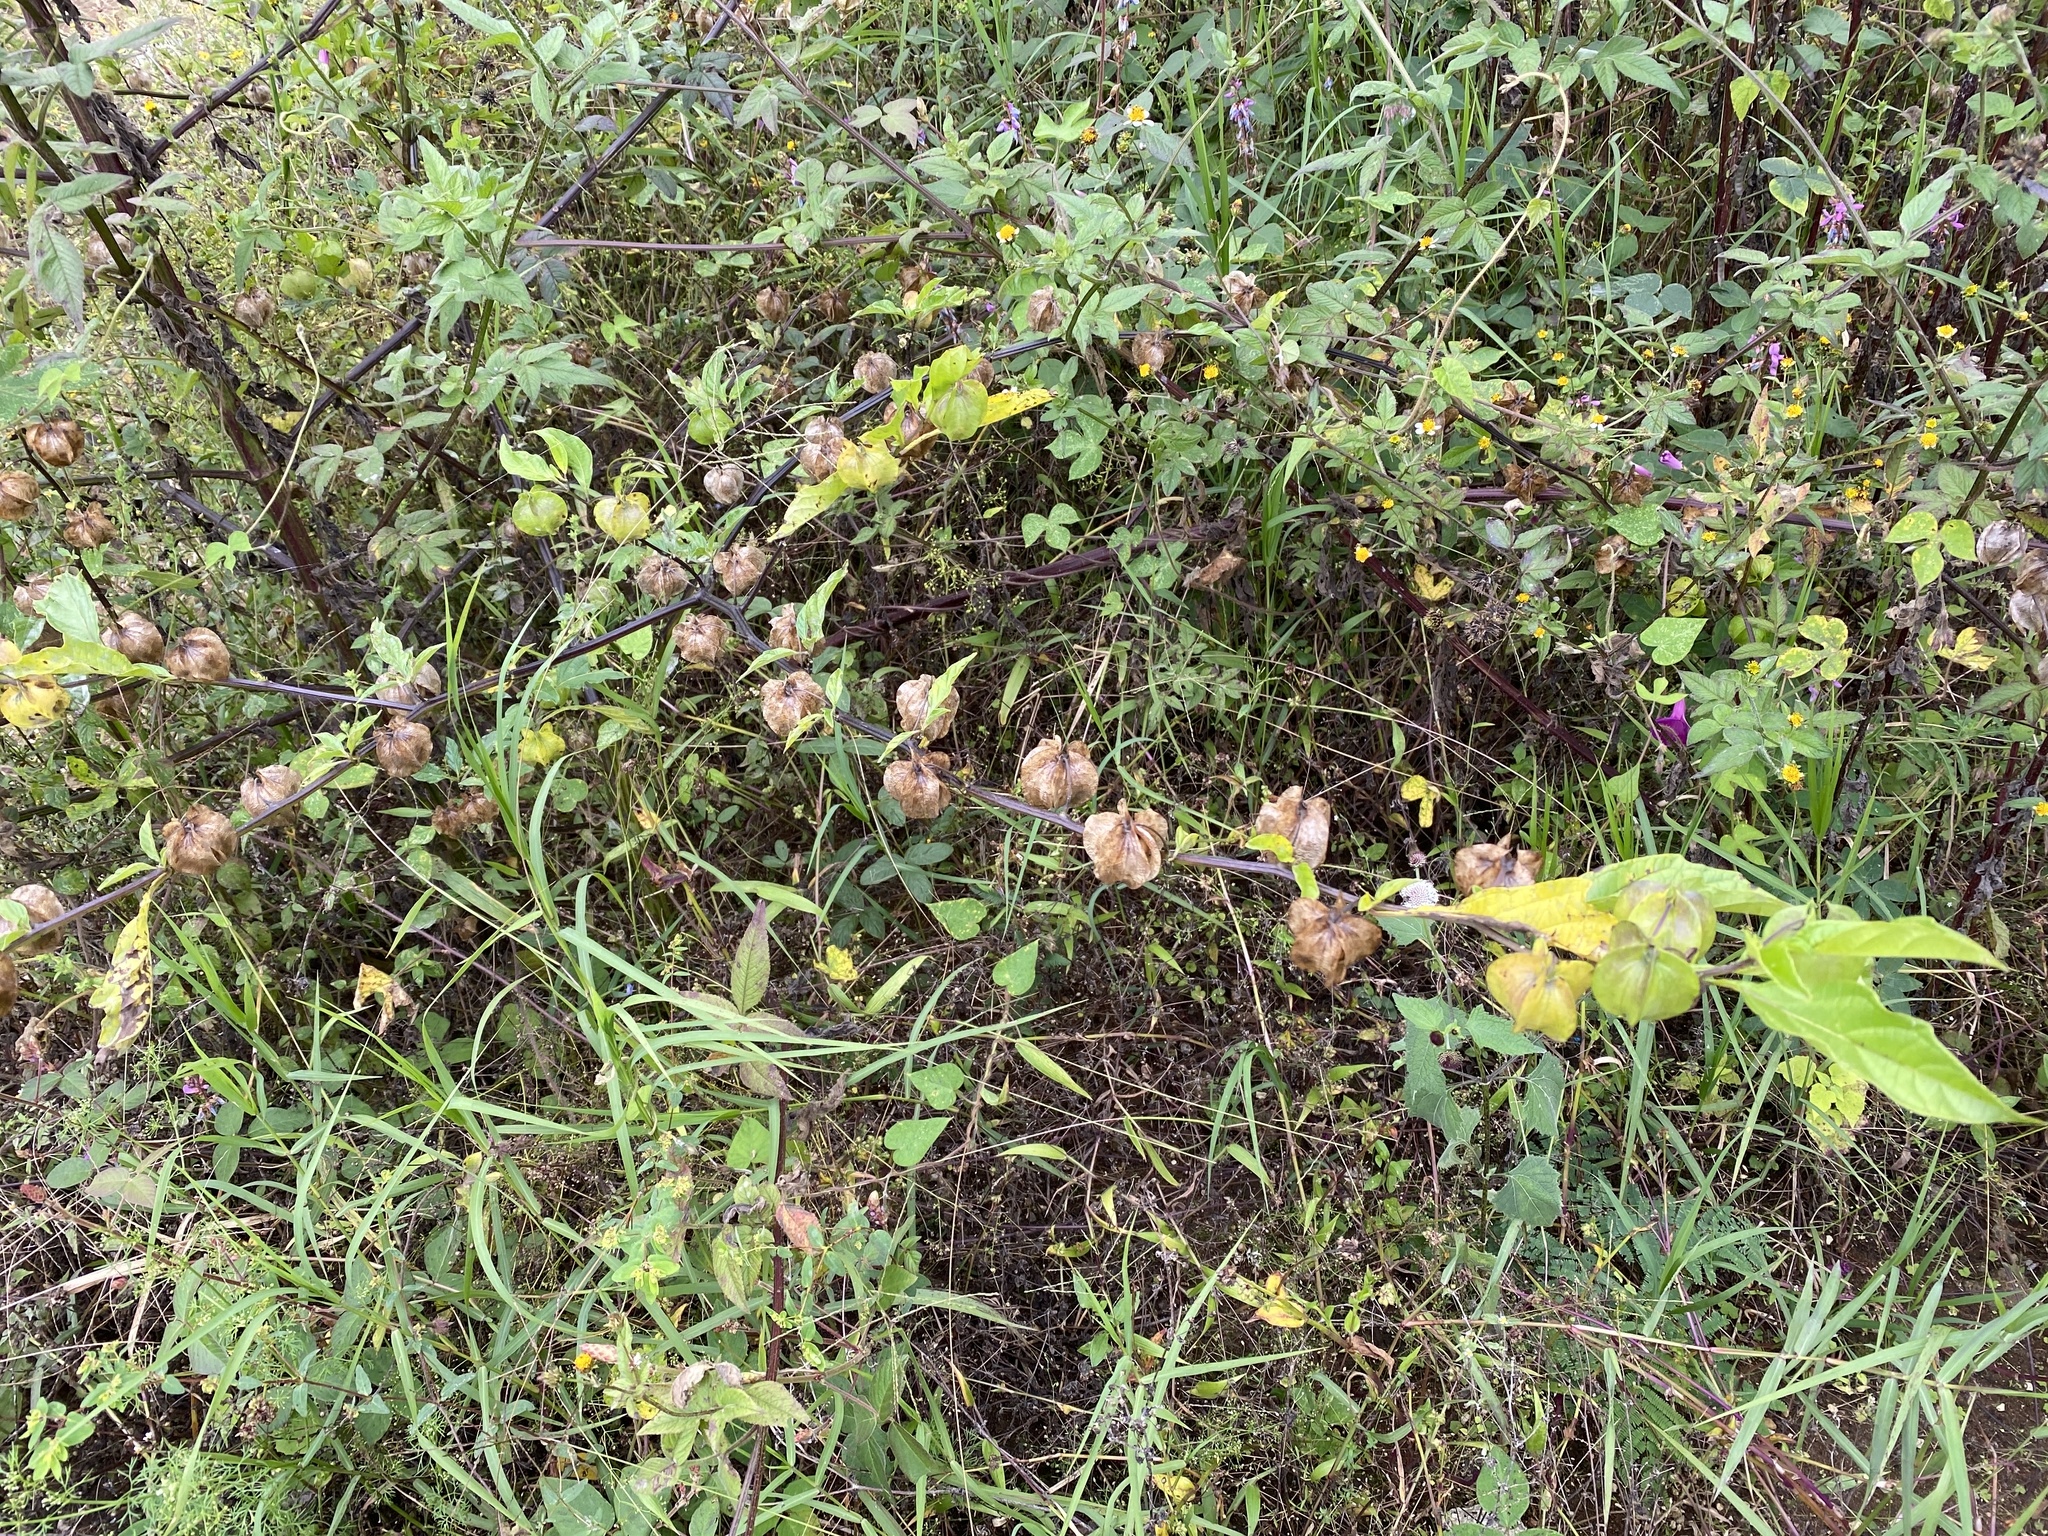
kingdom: Plantae
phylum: Tracheophyta
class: Magnoliopsida
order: Solanales
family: Solanaceae
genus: Nicandra
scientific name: Nicandra physalodes
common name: Apple-of-peru
